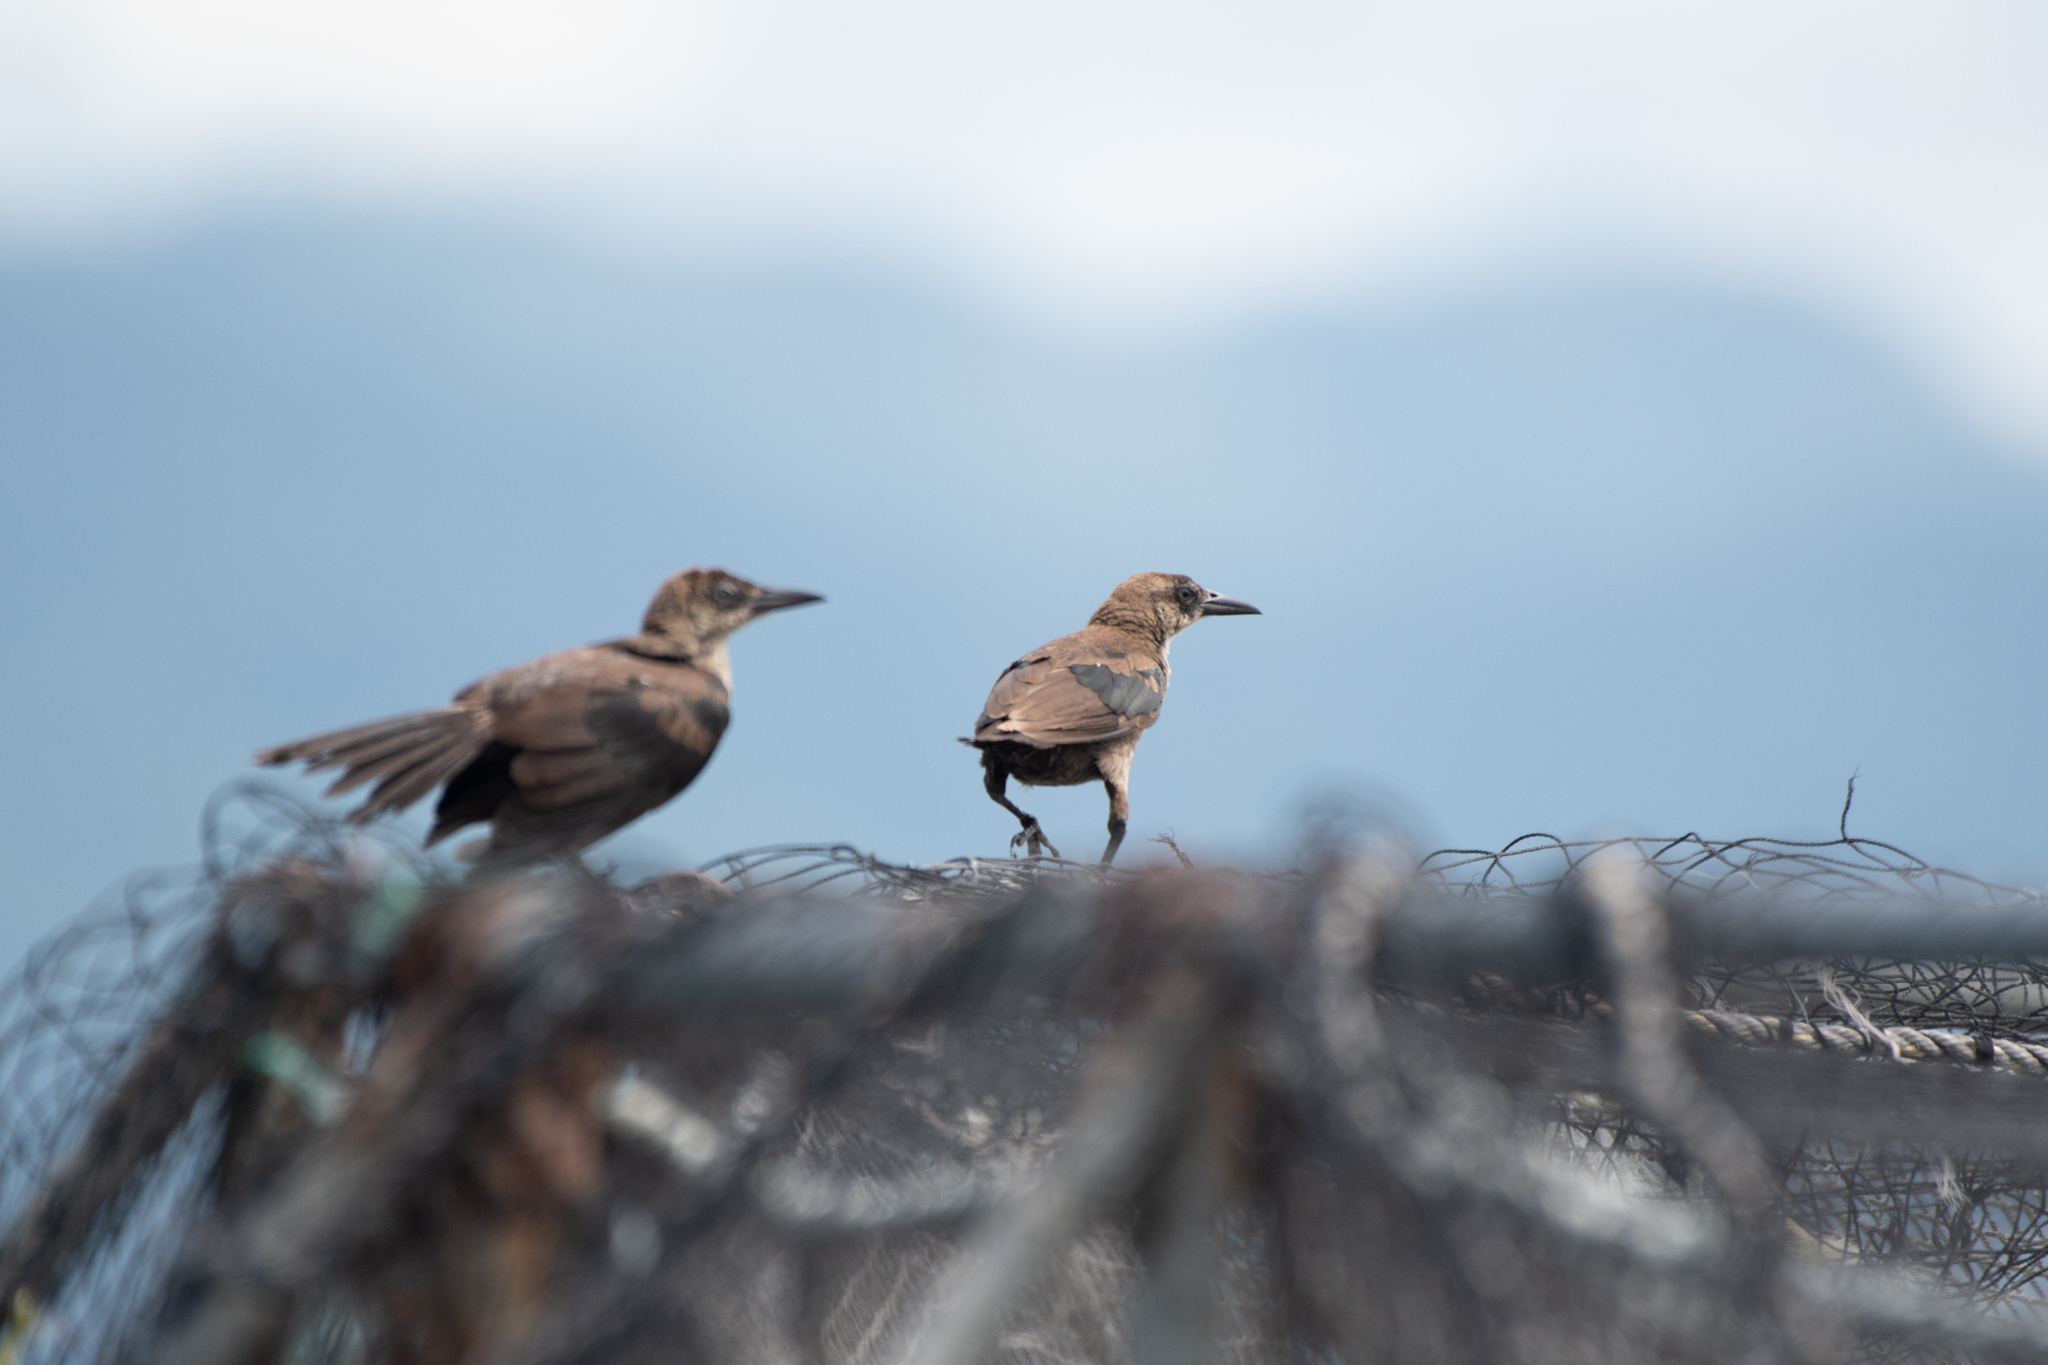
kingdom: Animalia
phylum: Chordata
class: Aves
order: Passeriformes
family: Icteridae
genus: Quiscalus
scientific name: Quiscalus mexicanus
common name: Great-tailed grackle
